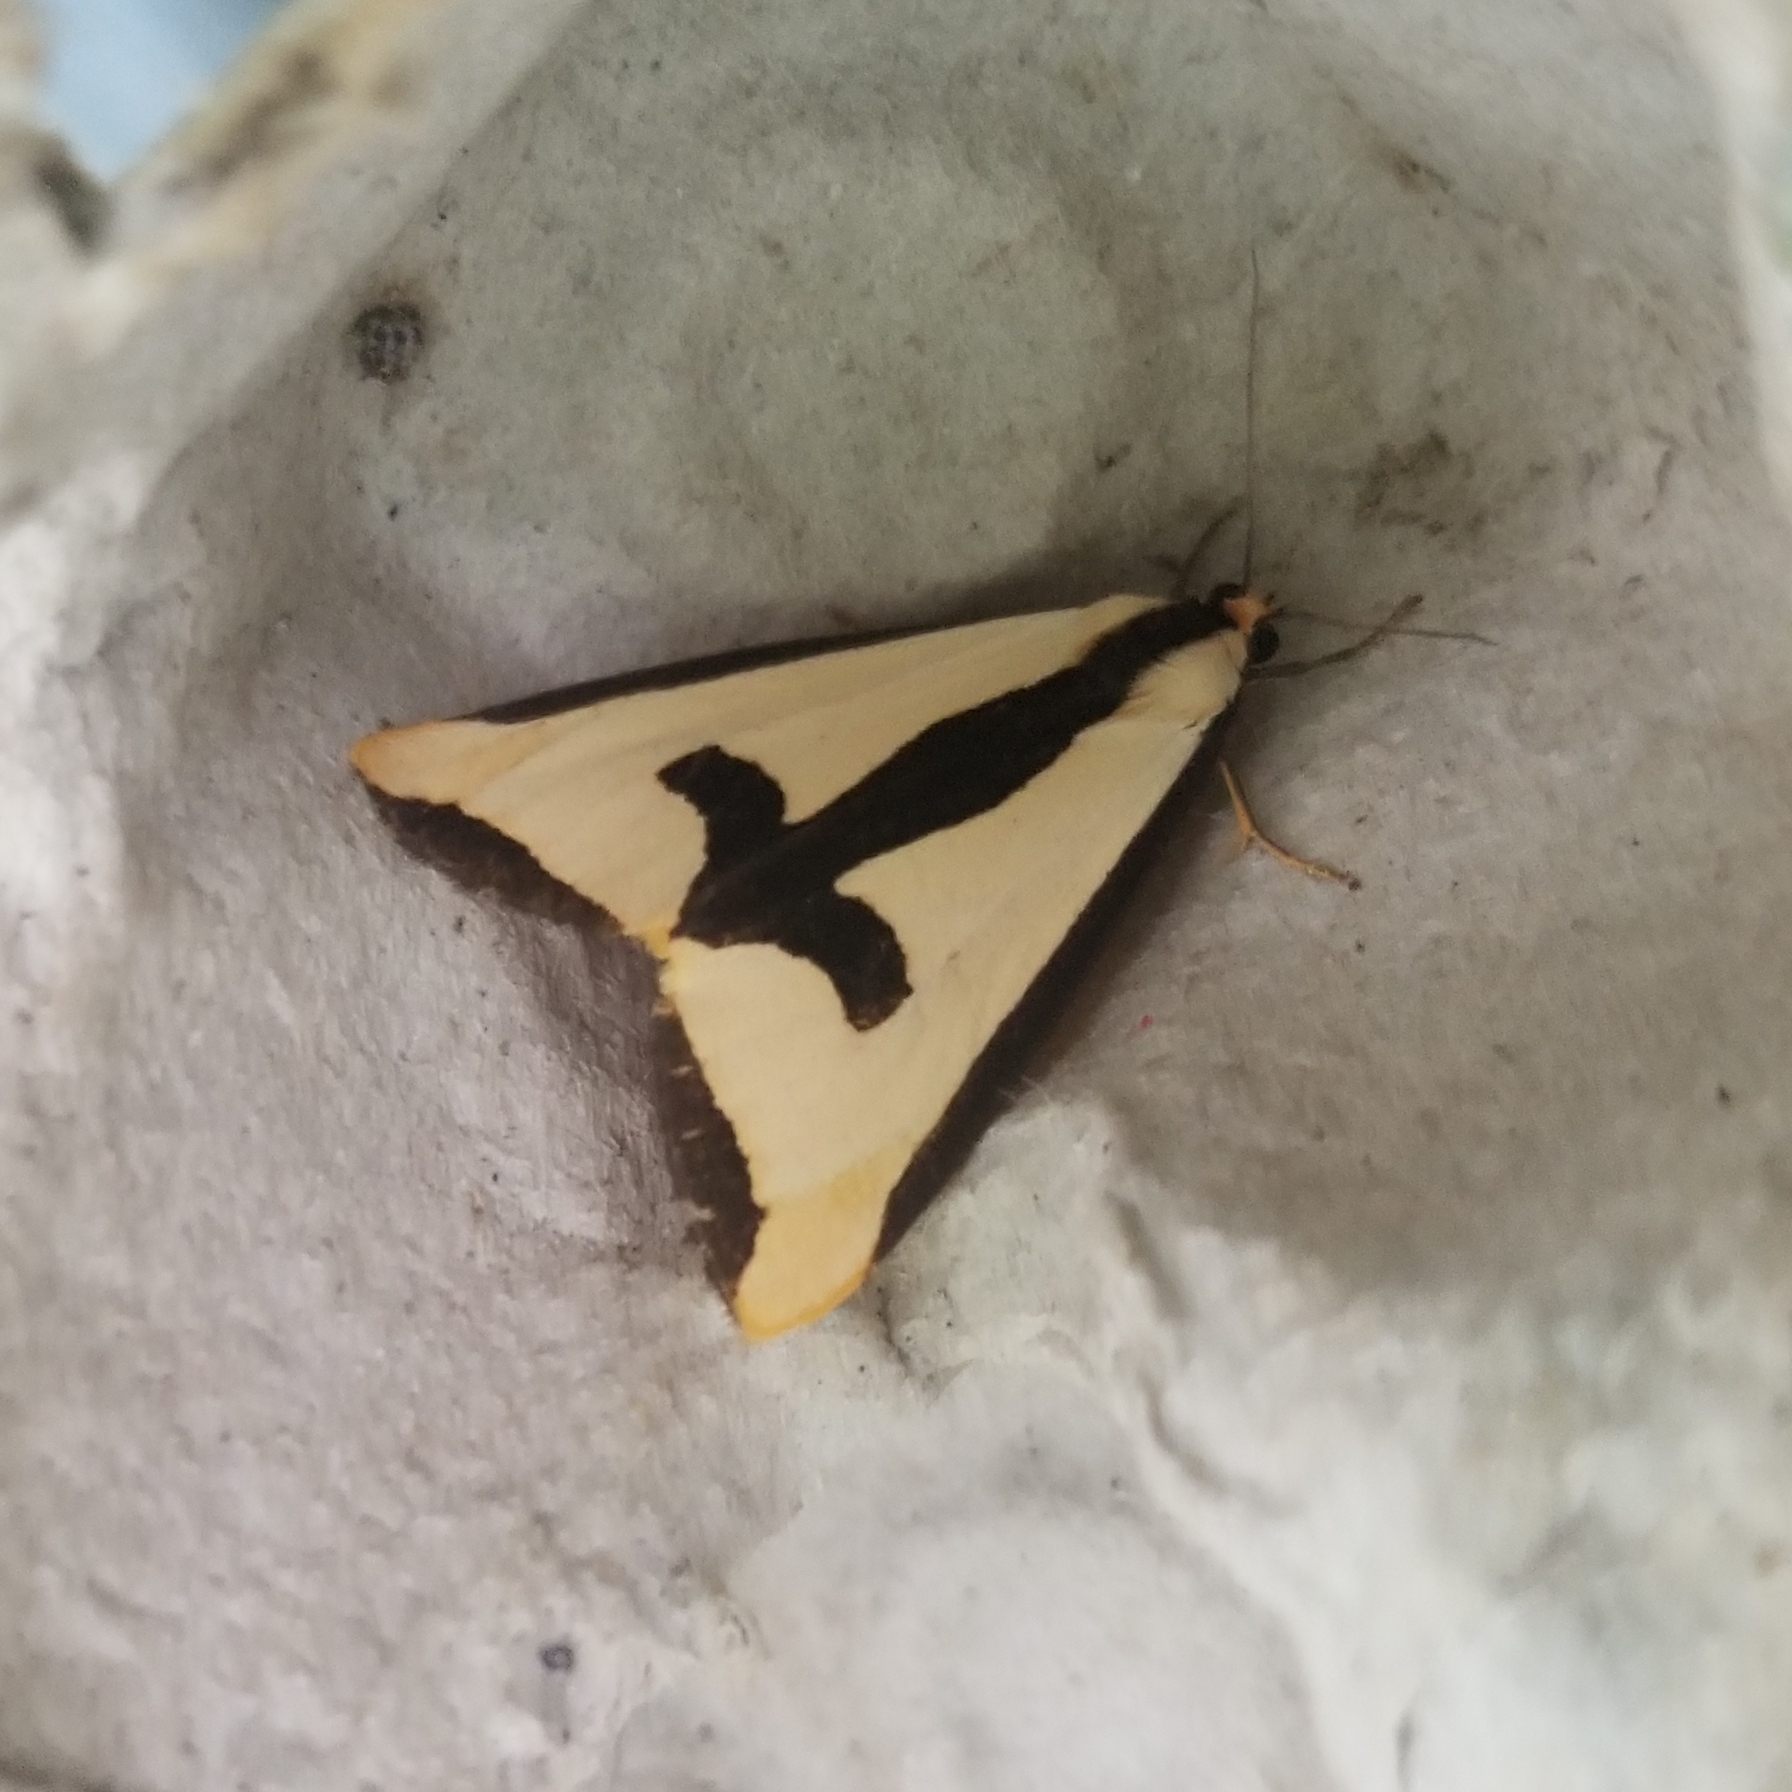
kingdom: Animalia
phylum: Arthropoda
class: Insecta
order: Lepidoptera
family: Erebidae
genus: Haploa
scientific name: Haploa clymene
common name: Clymene moth
